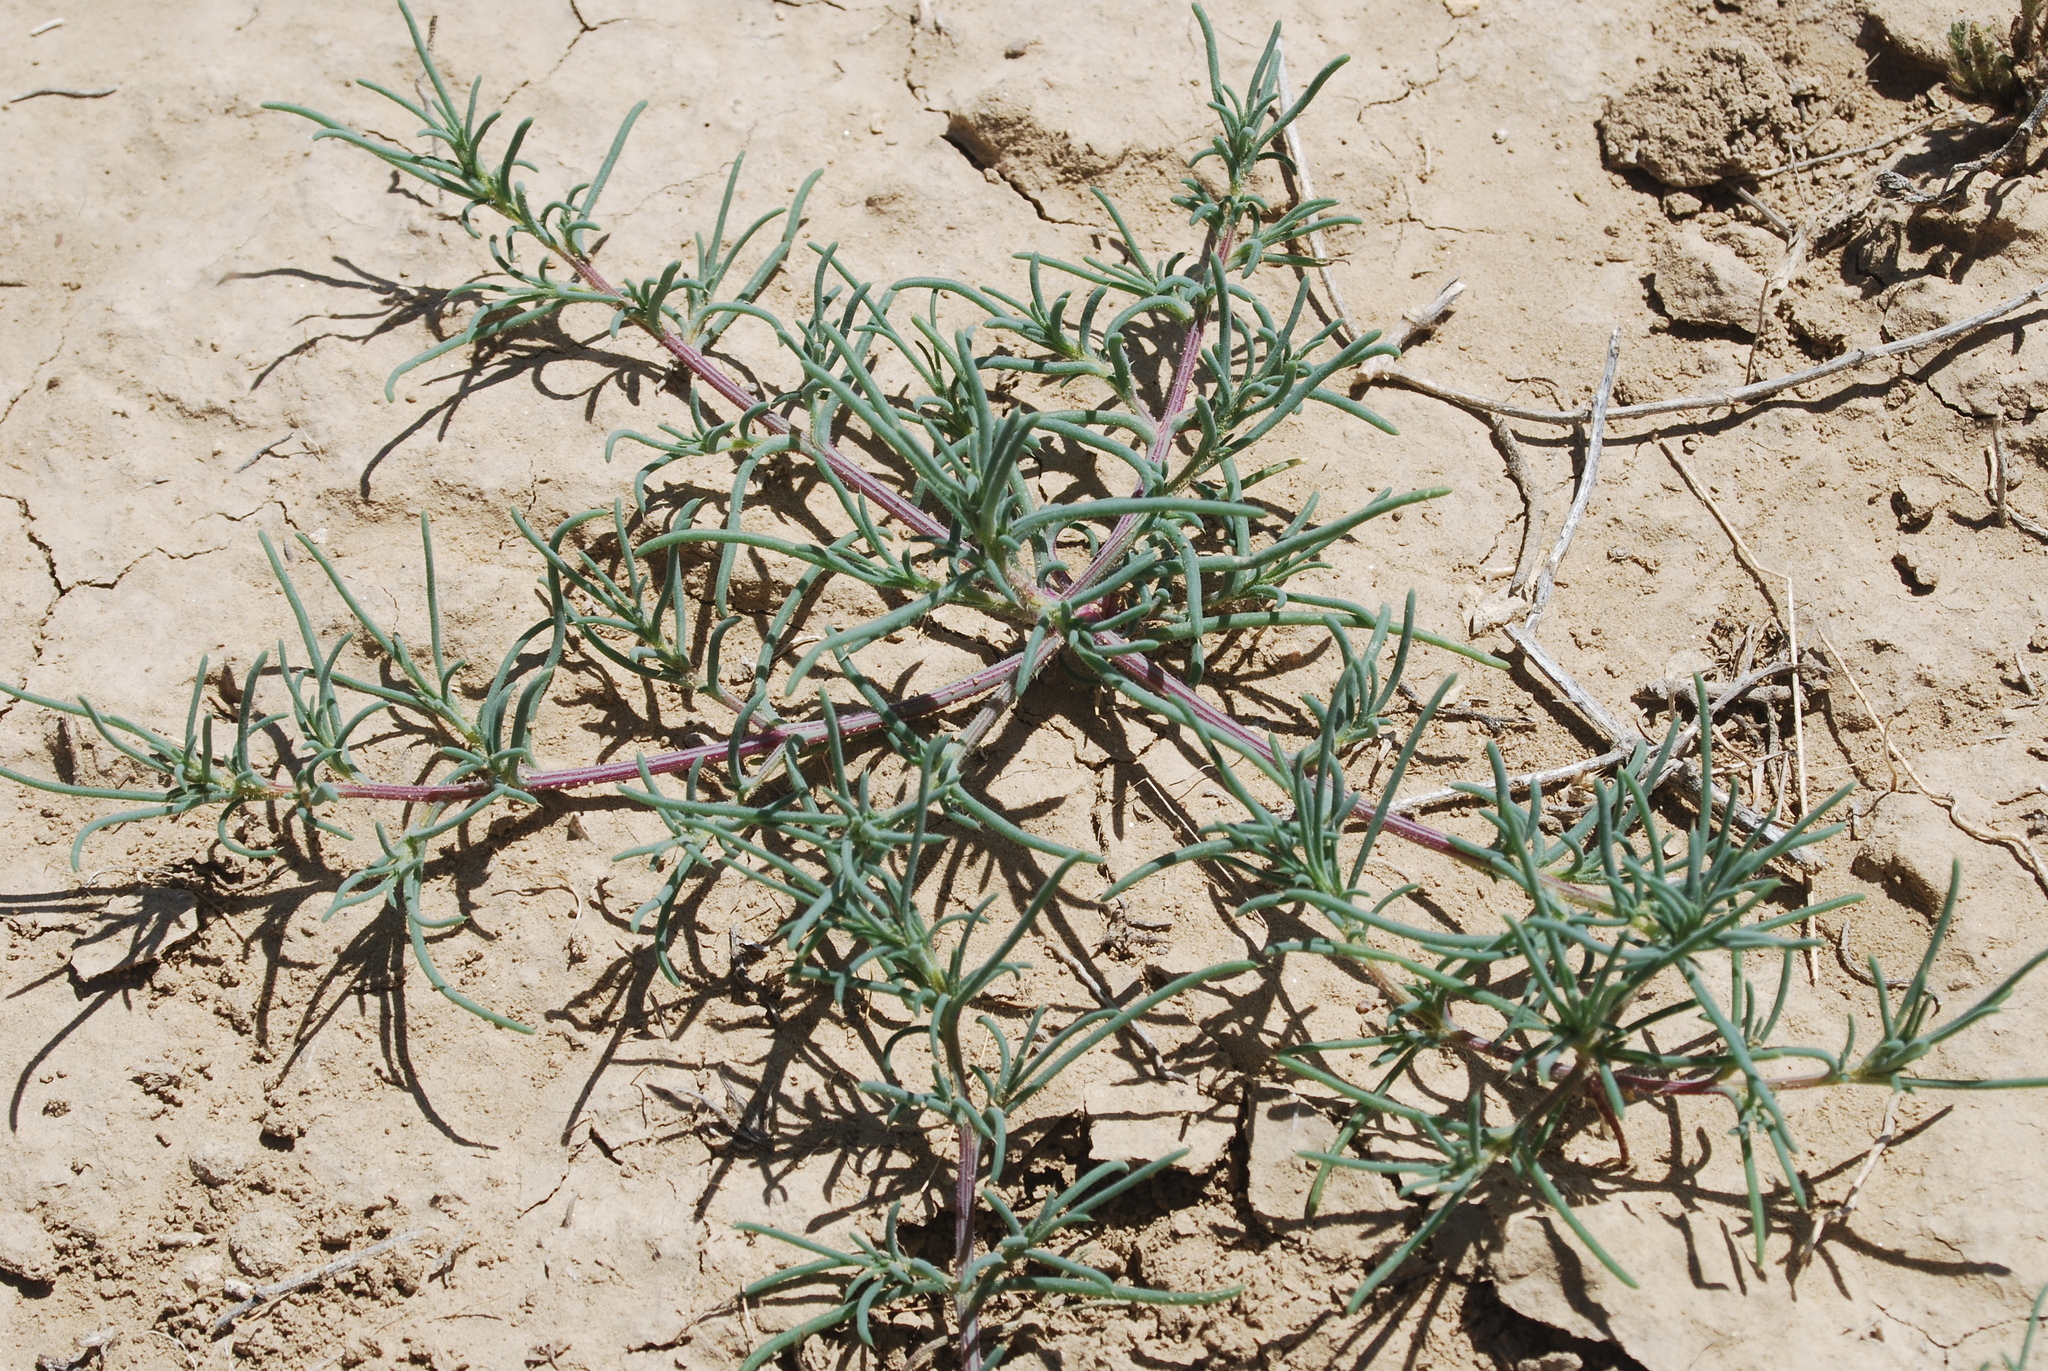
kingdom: Plantae
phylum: Tracheophyta
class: Magnoliopsida
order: Caryophyllales
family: Amaranthaceae
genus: Salsola
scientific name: Salsola tragus
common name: Prickly russian thistle
